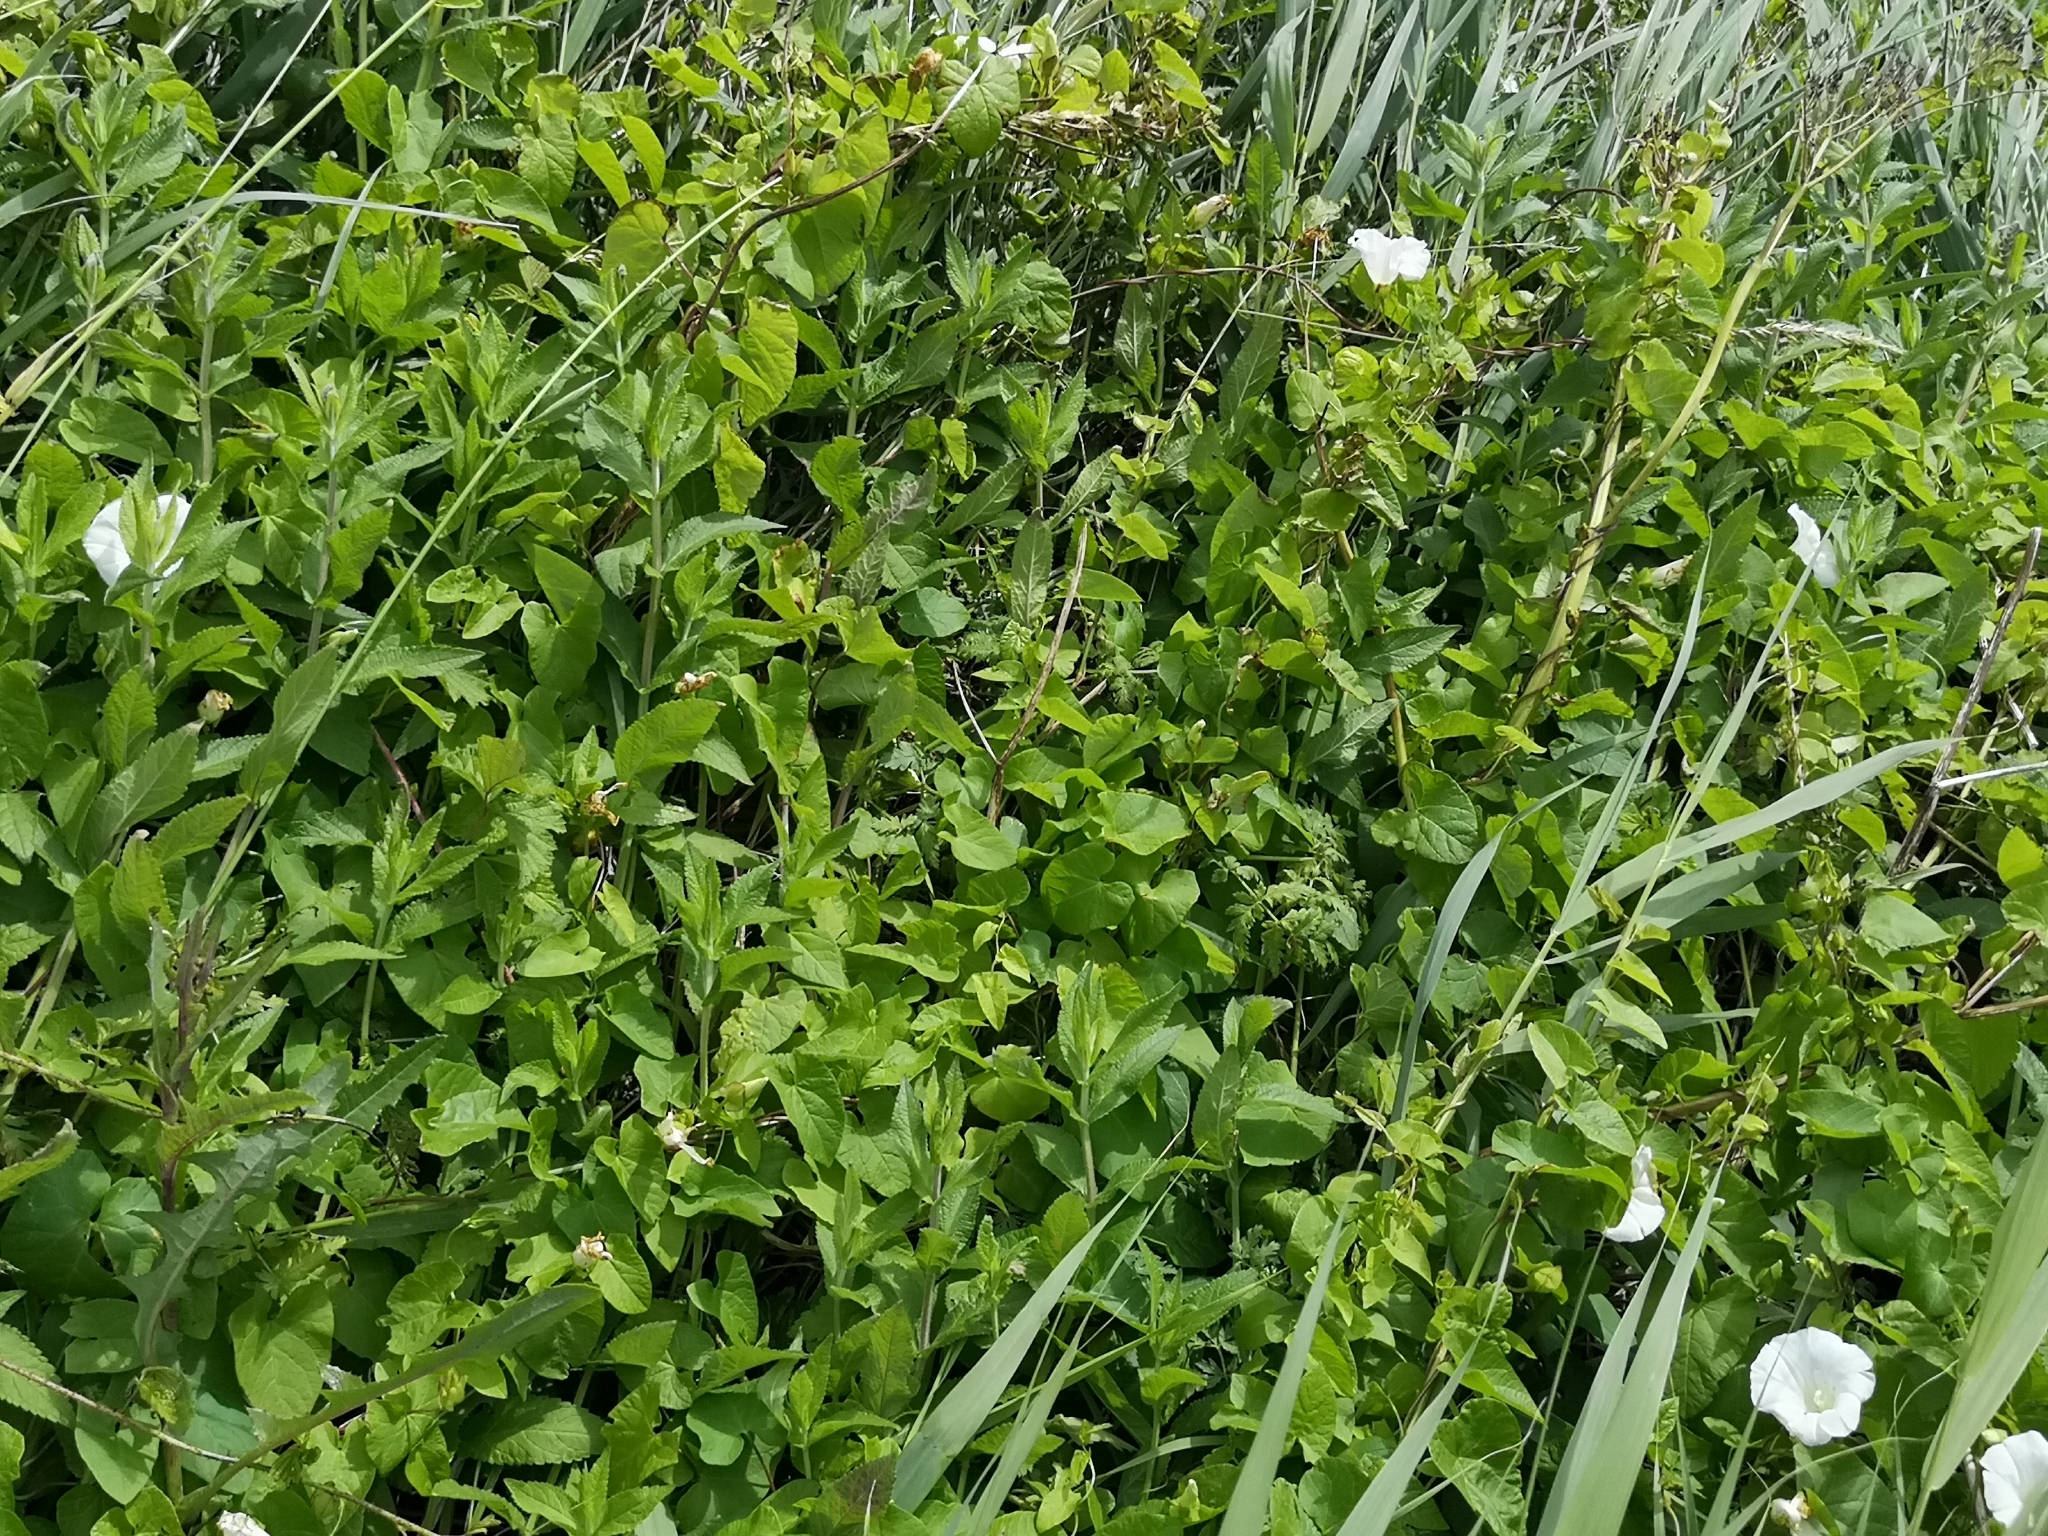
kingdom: Plantae
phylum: Tracheophyta
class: Magnoliopsida
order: Solanales
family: Convolvulaceae
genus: Calystegia
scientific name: Calystegia sepium
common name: Hedge bindweed
